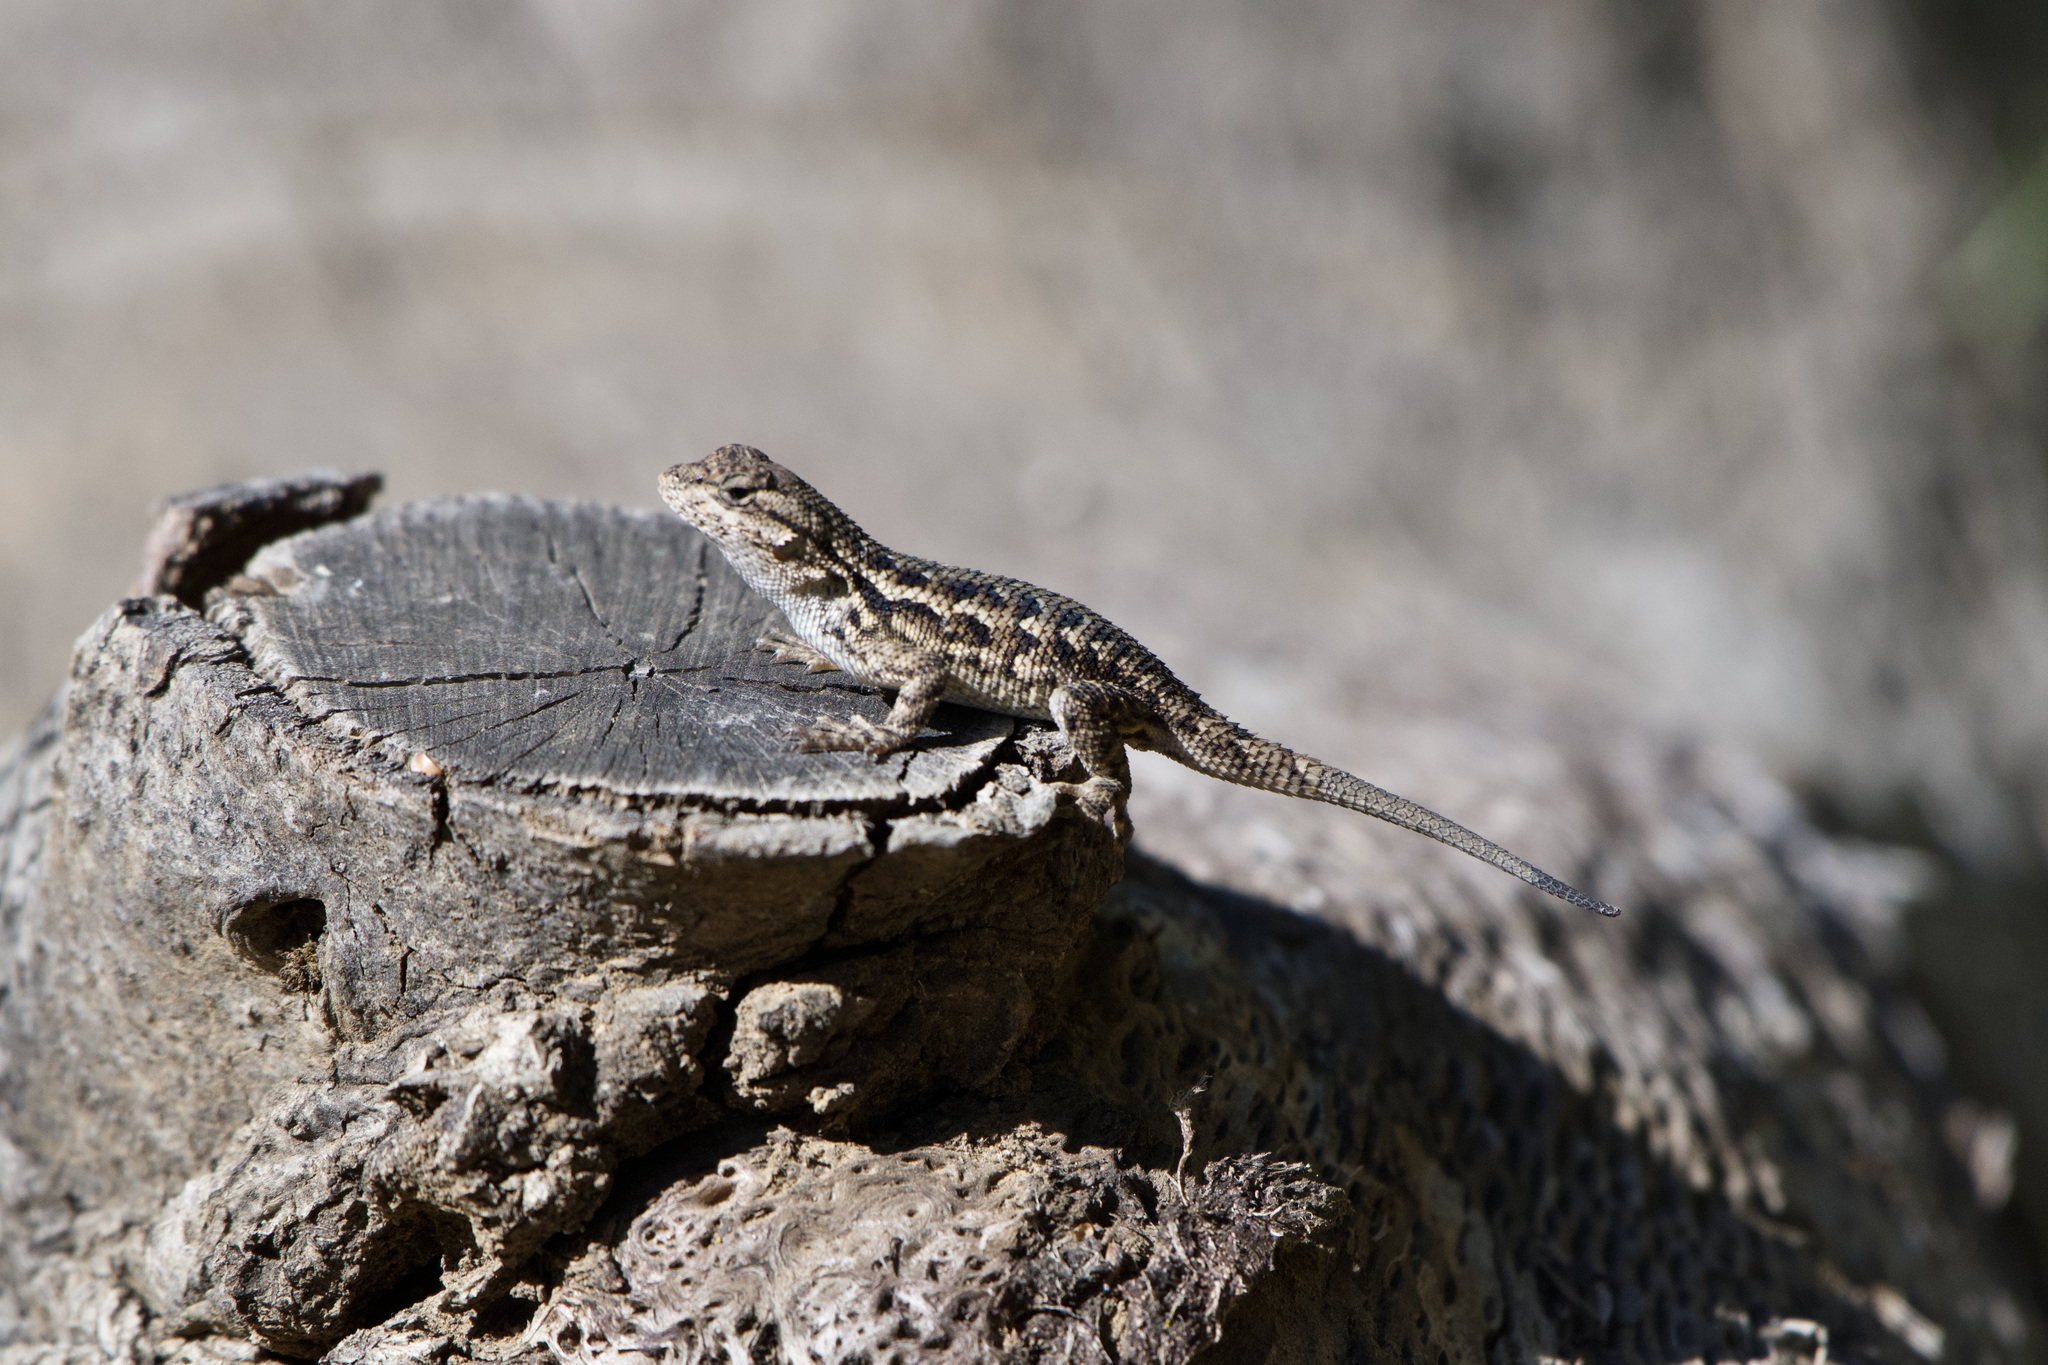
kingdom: Animalia
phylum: Chordata
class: Squamata
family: Phrynosomatidae
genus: Sceloporus
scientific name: Sceloporus occidentalis
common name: Western fence lizard
